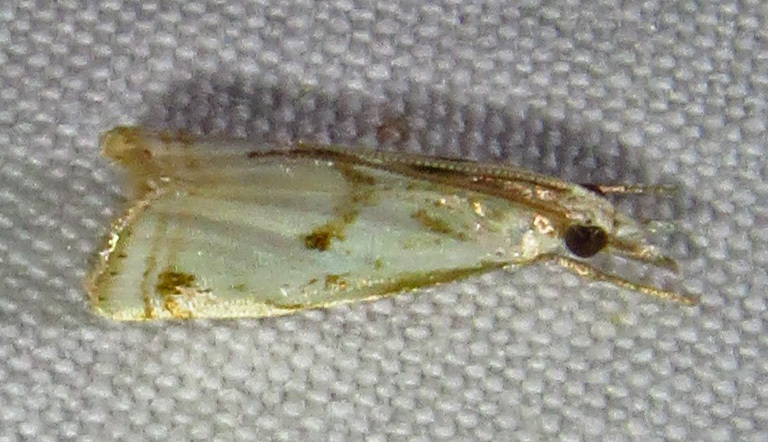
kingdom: Animalia
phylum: Arthropoda
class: Insecta
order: Lepidoptera
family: Crambidae
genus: Microcrambus
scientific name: Microcrambus elegans
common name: Elegant grass-veneer
